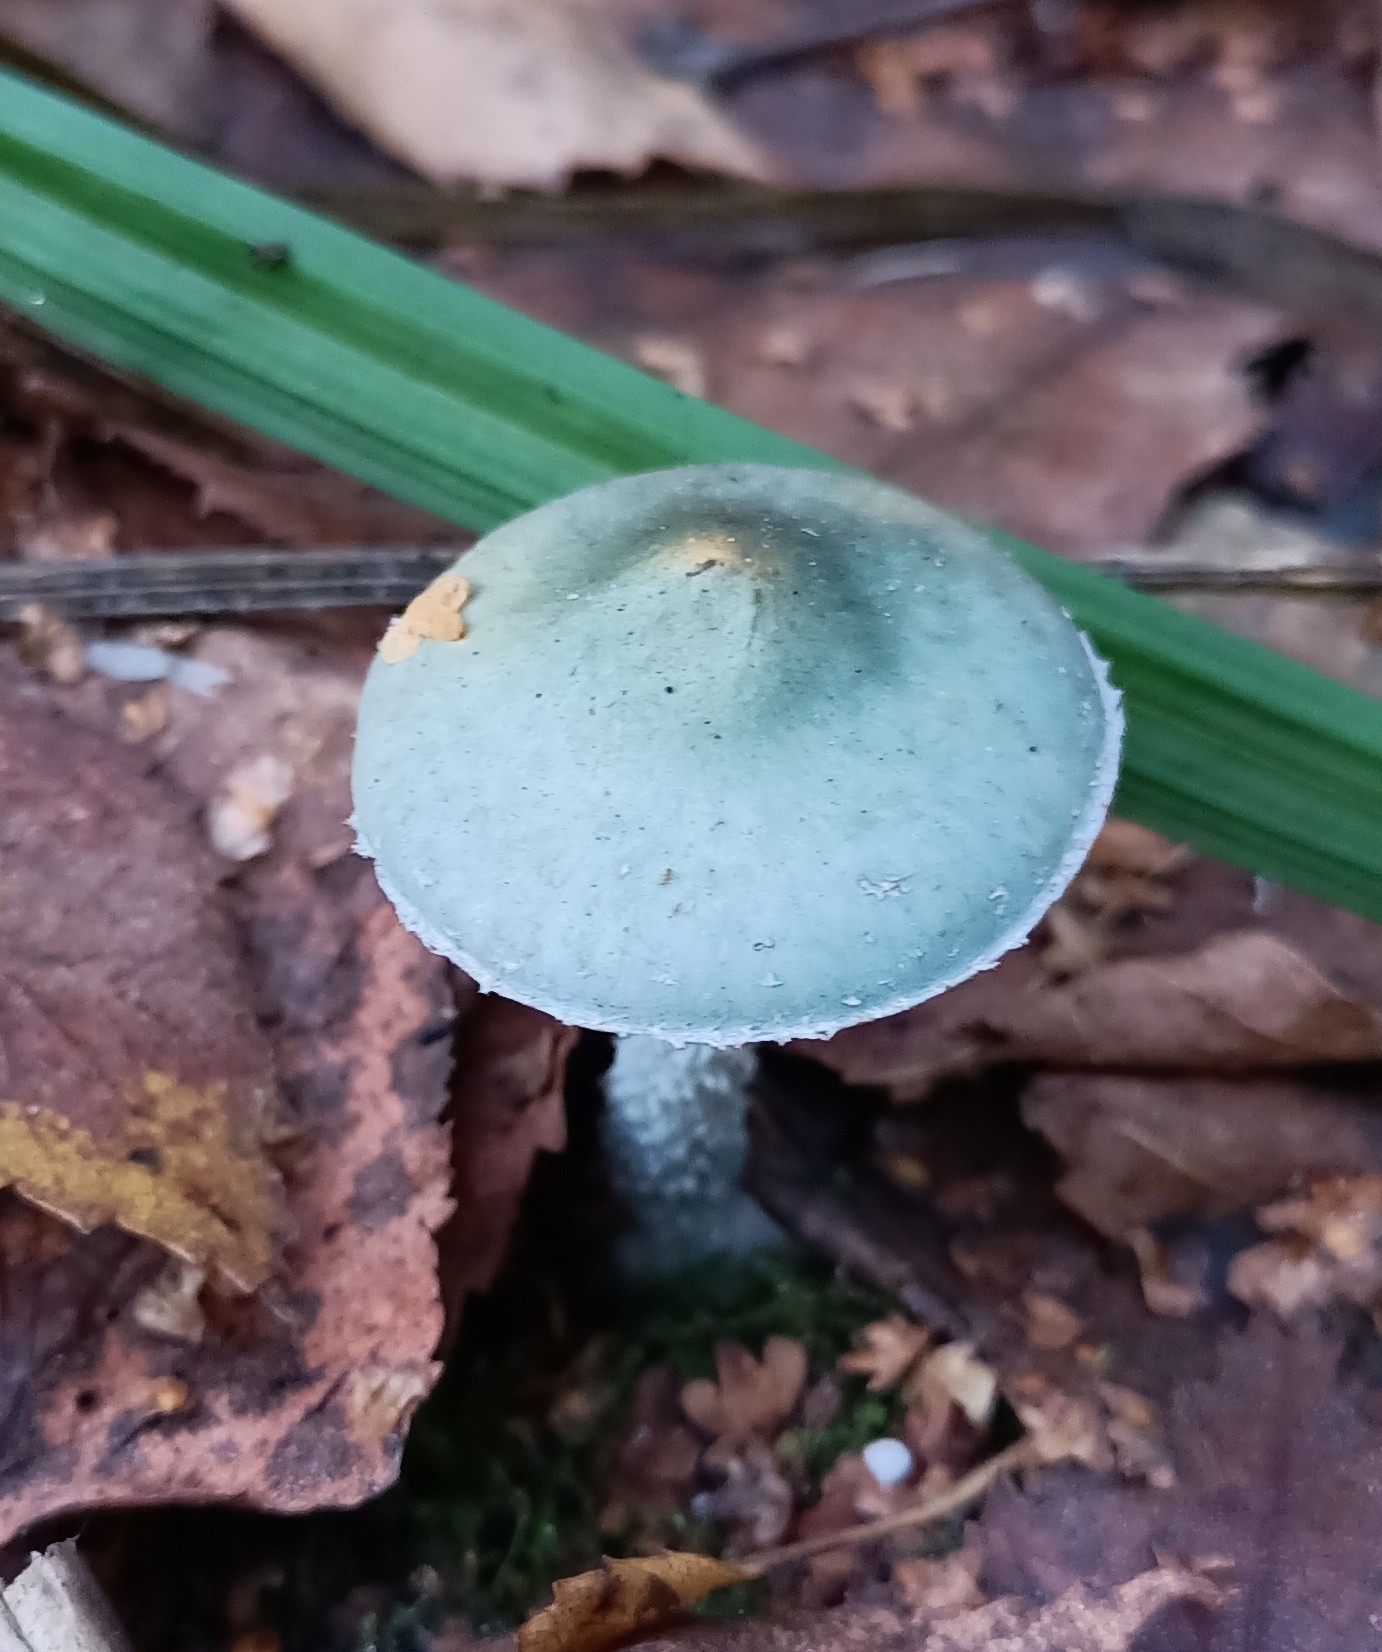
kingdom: Fungi
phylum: Basidiomycota
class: Agaricomycetes
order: Agaricales
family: Strophariaceae
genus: Stropharia
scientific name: Stropharia aeruginosa
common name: Verdigris roundhead
